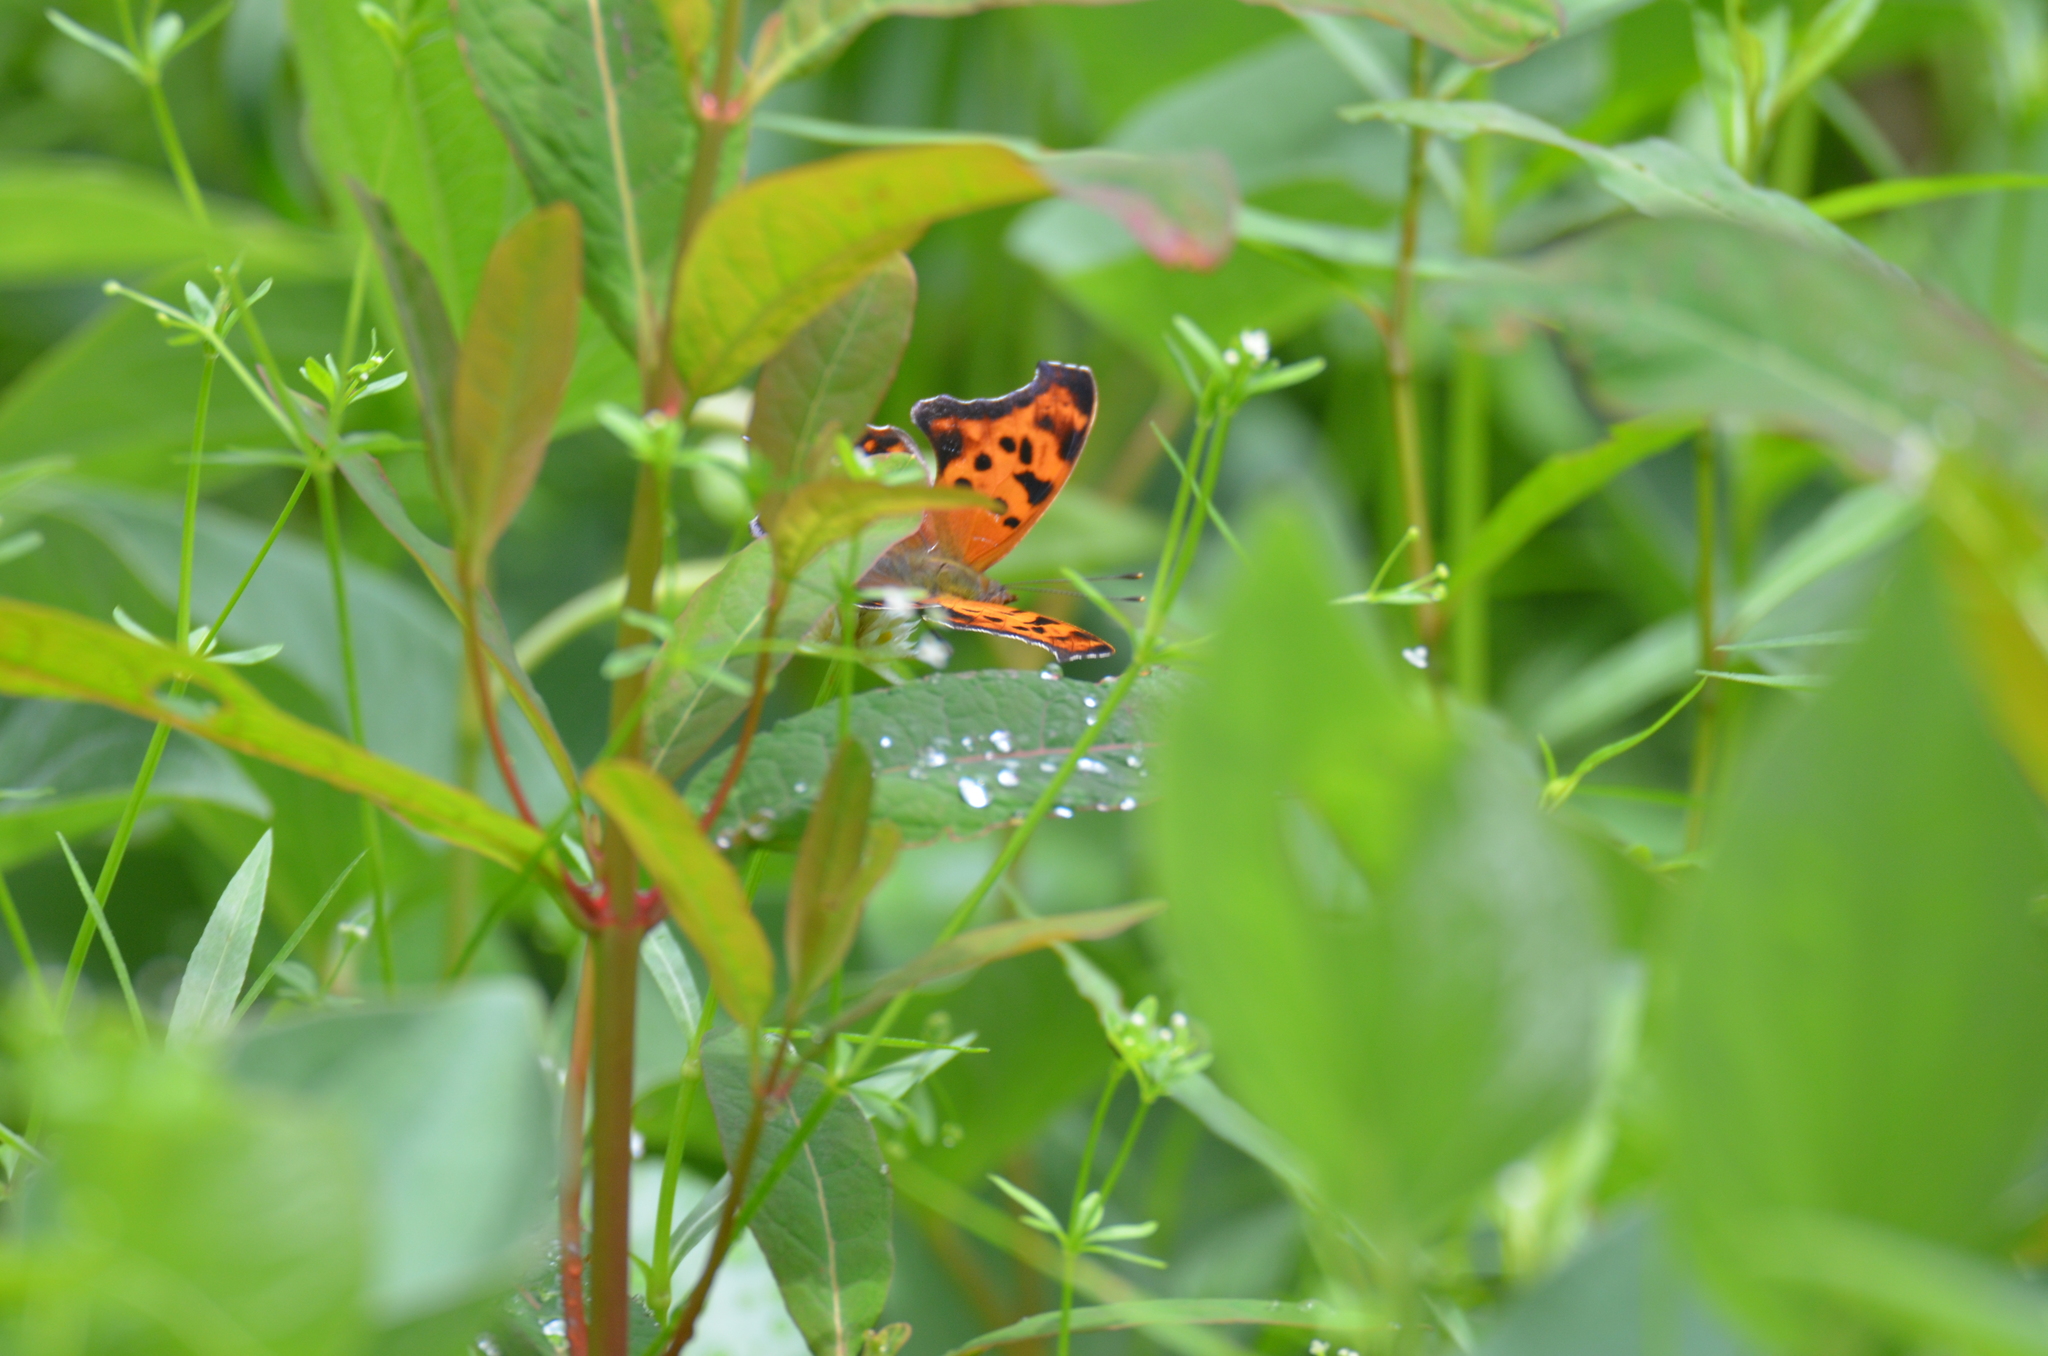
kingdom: Animalia
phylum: Arthropoda
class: Insecta
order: Lepidoptera
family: Nymphalidae
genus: Polygonia
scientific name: Polygonia interrogationis
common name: Question mark
